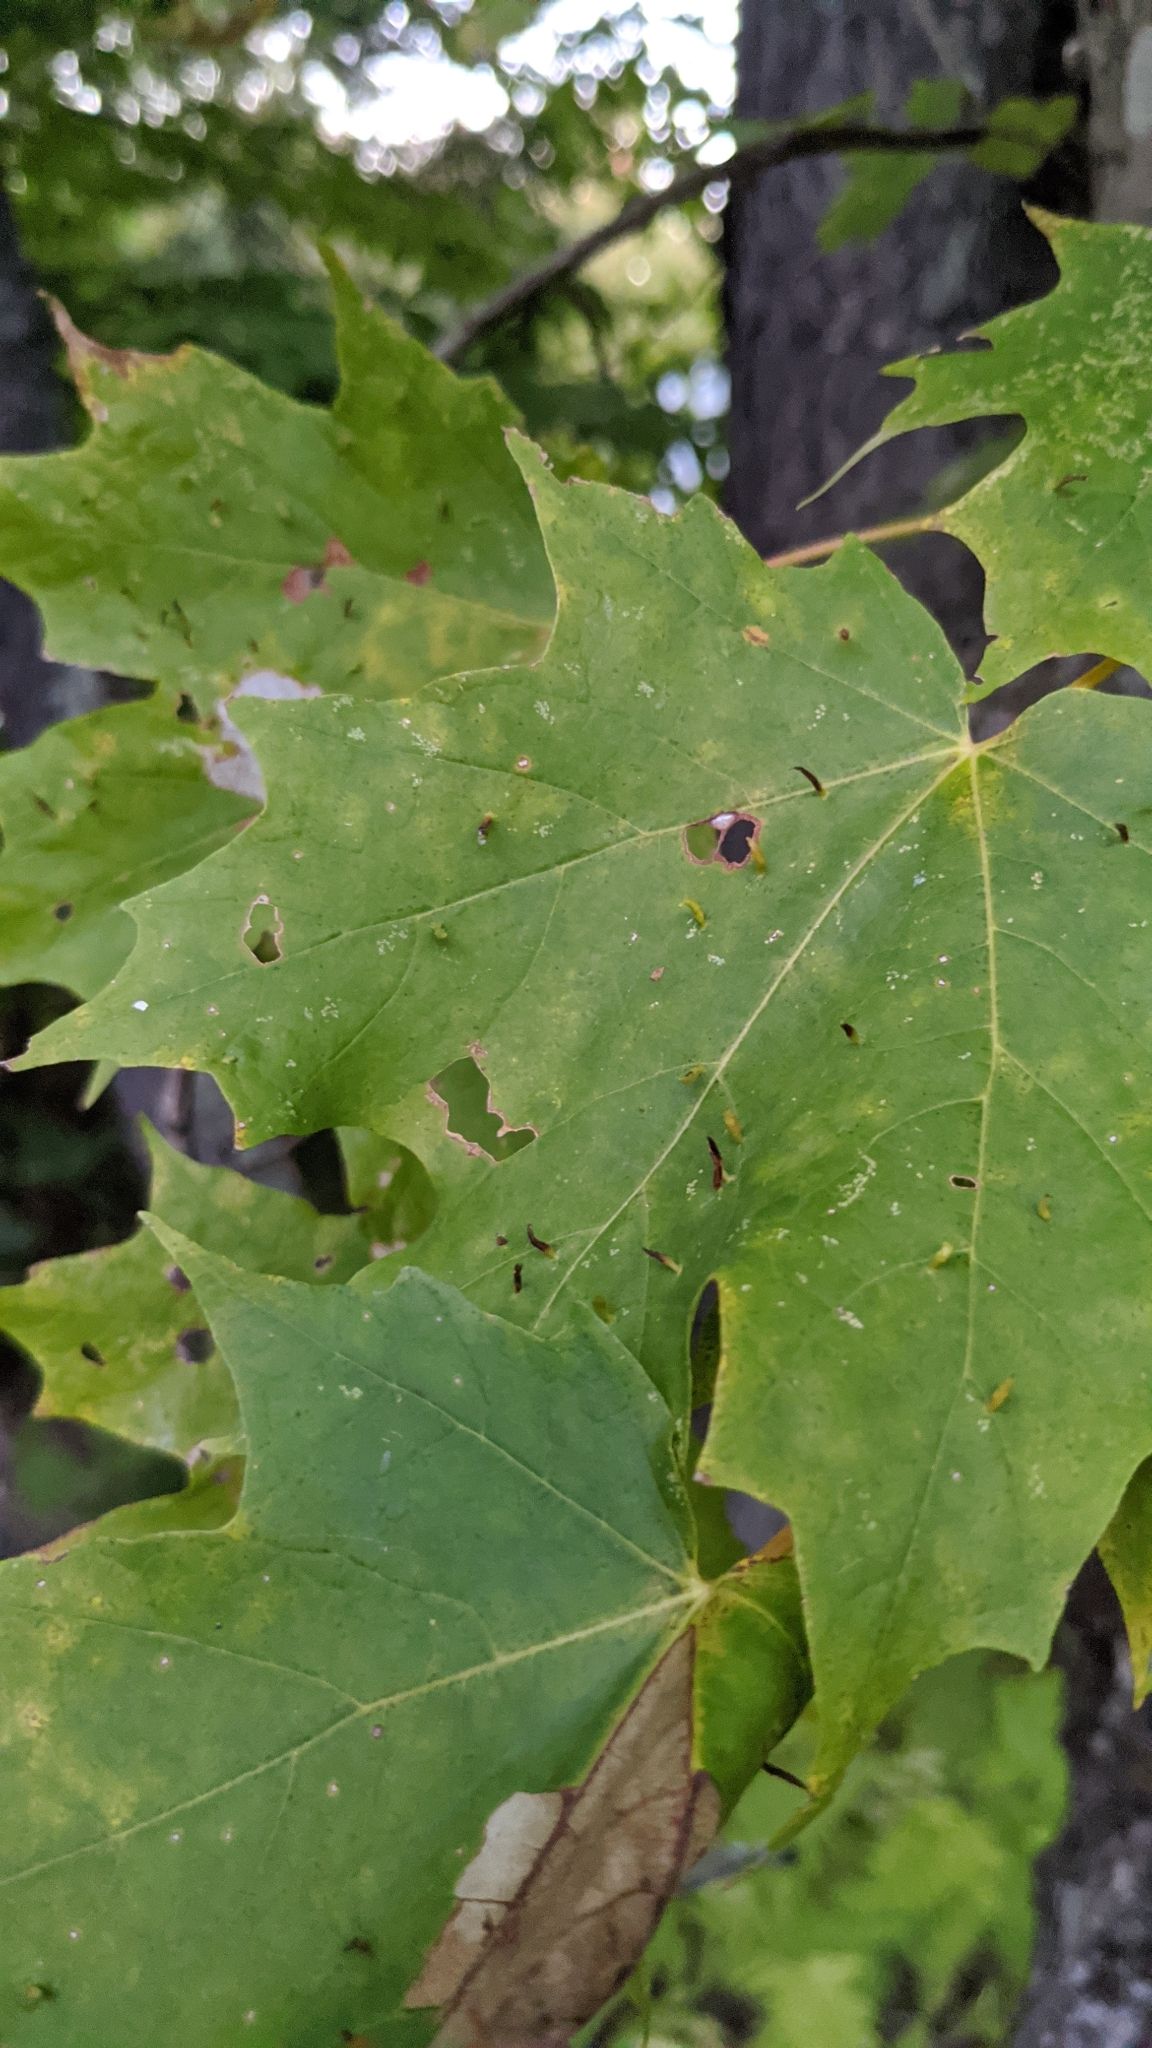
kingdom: Plantae
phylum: Tracheophyta
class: Magnoliopsida
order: Sapindales
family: Sapindaceae
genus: Acer
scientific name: Acer saccharum
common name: Sugar maple
